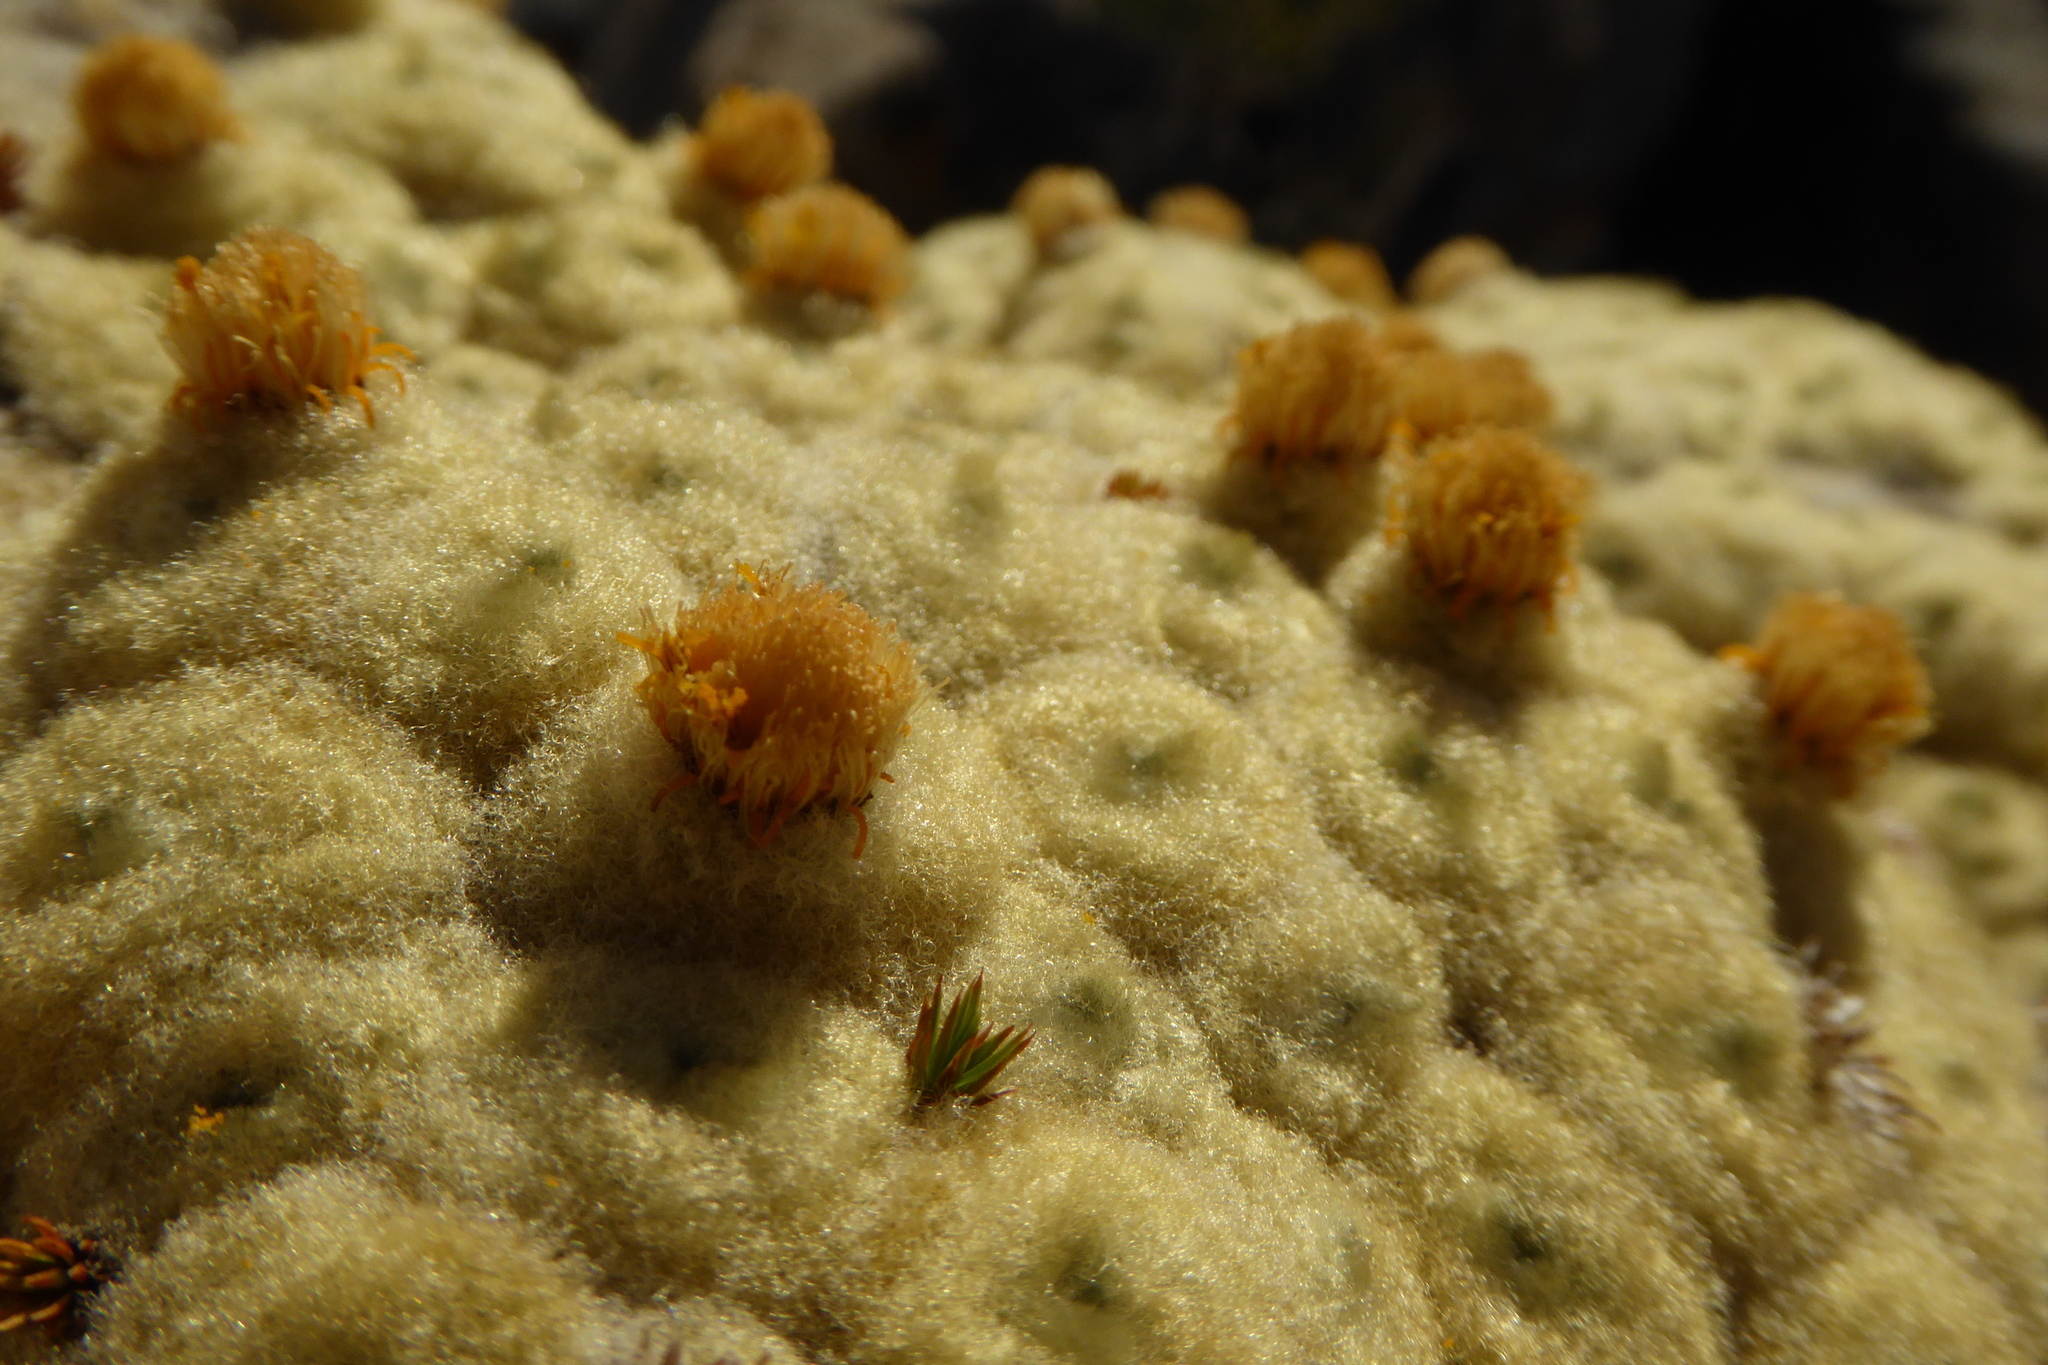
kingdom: Plantae
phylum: Tracheophyta
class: Magnoliopsida
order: Asterales
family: Asteraceae
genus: Haastia
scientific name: Haastia pulvinaris
